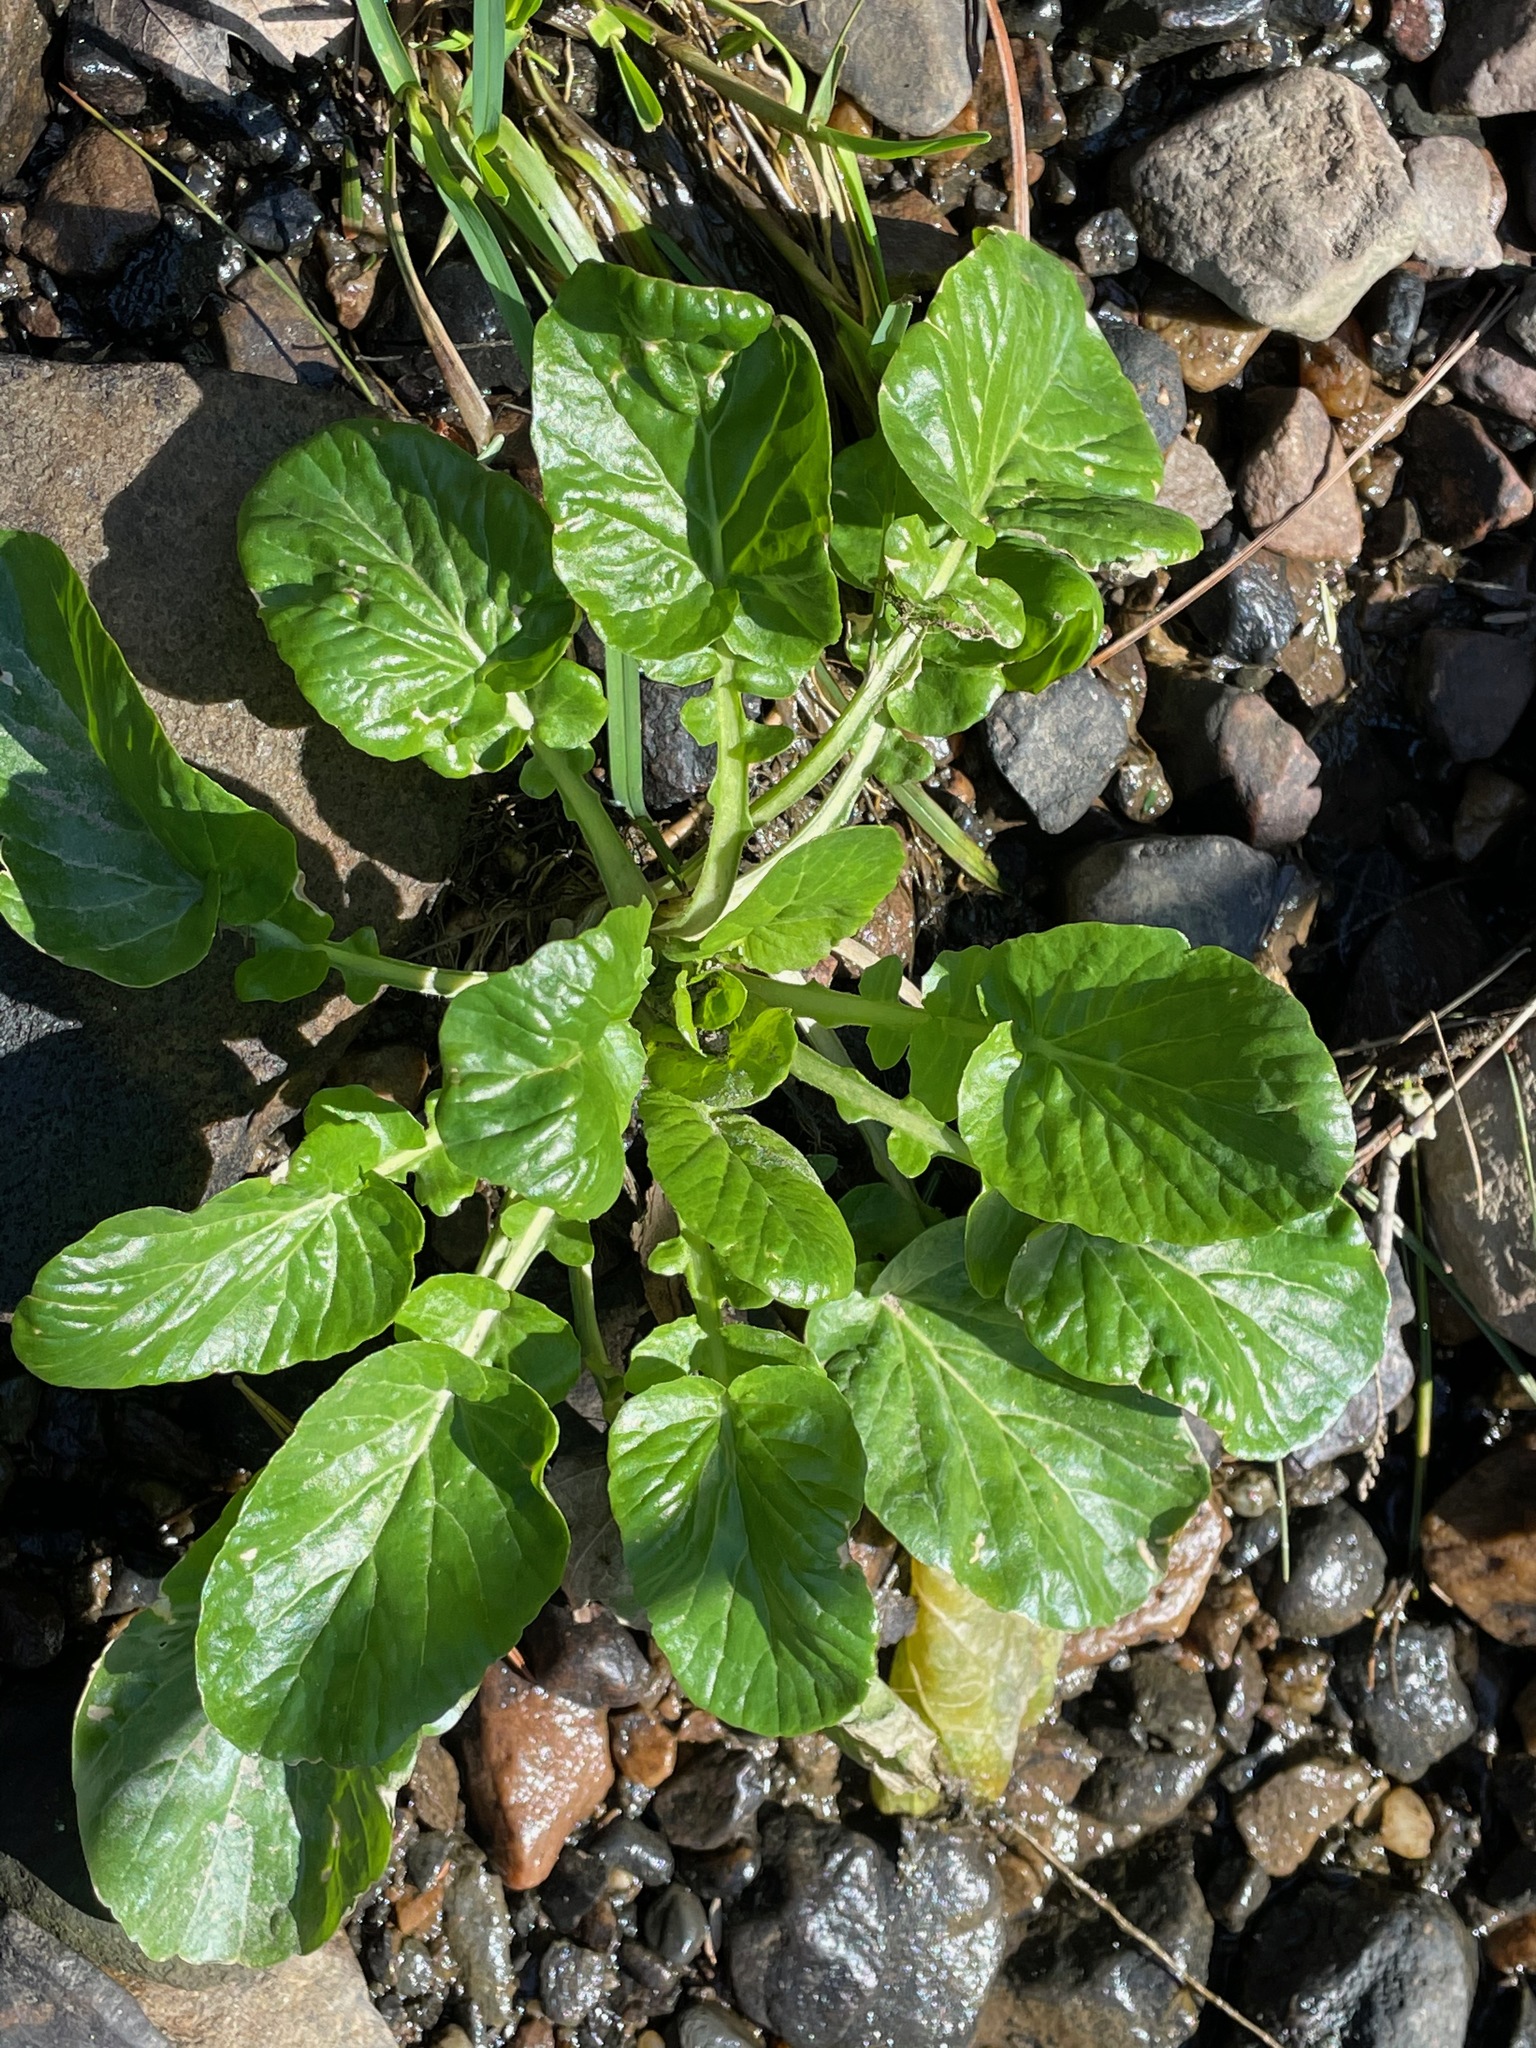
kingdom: Plantae
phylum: Tracheophyta
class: Magnoliopsida
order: Brassicales
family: Brassicaceae
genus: Barbarea
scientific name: Barbarea vulgaris
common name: Cressy-greens
